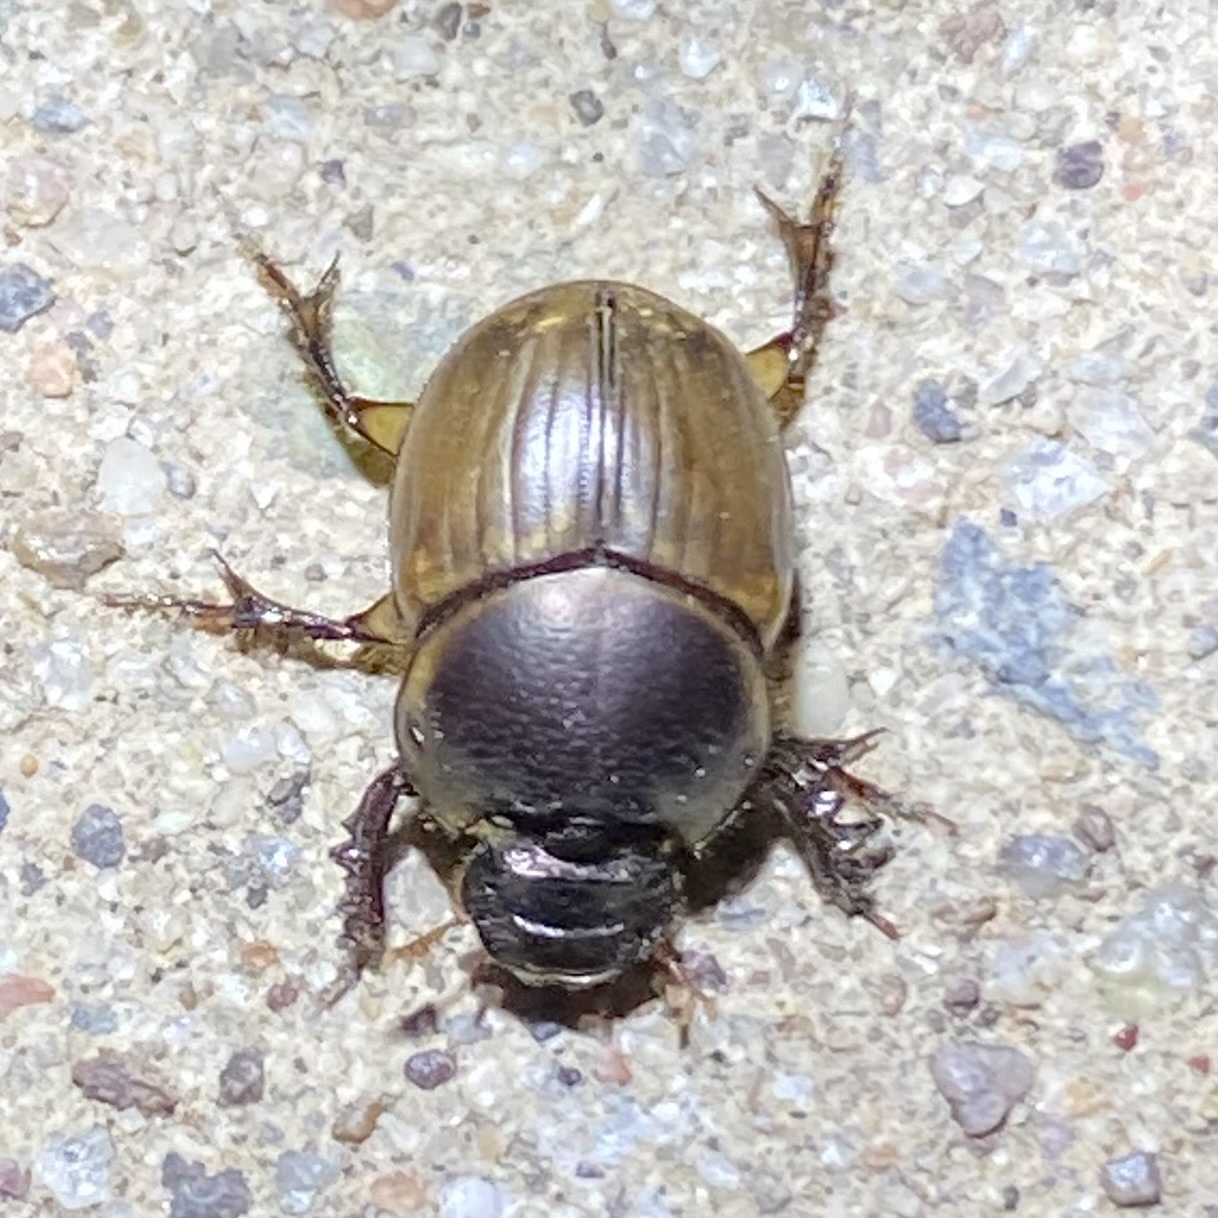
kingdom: Animalia
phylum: Arthropoda
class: Insecta
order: Coleoptera
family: Scarabaeidae
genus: Digitonthophagus
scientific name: Digitonthophagus gazella
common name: Brown dung beetle
